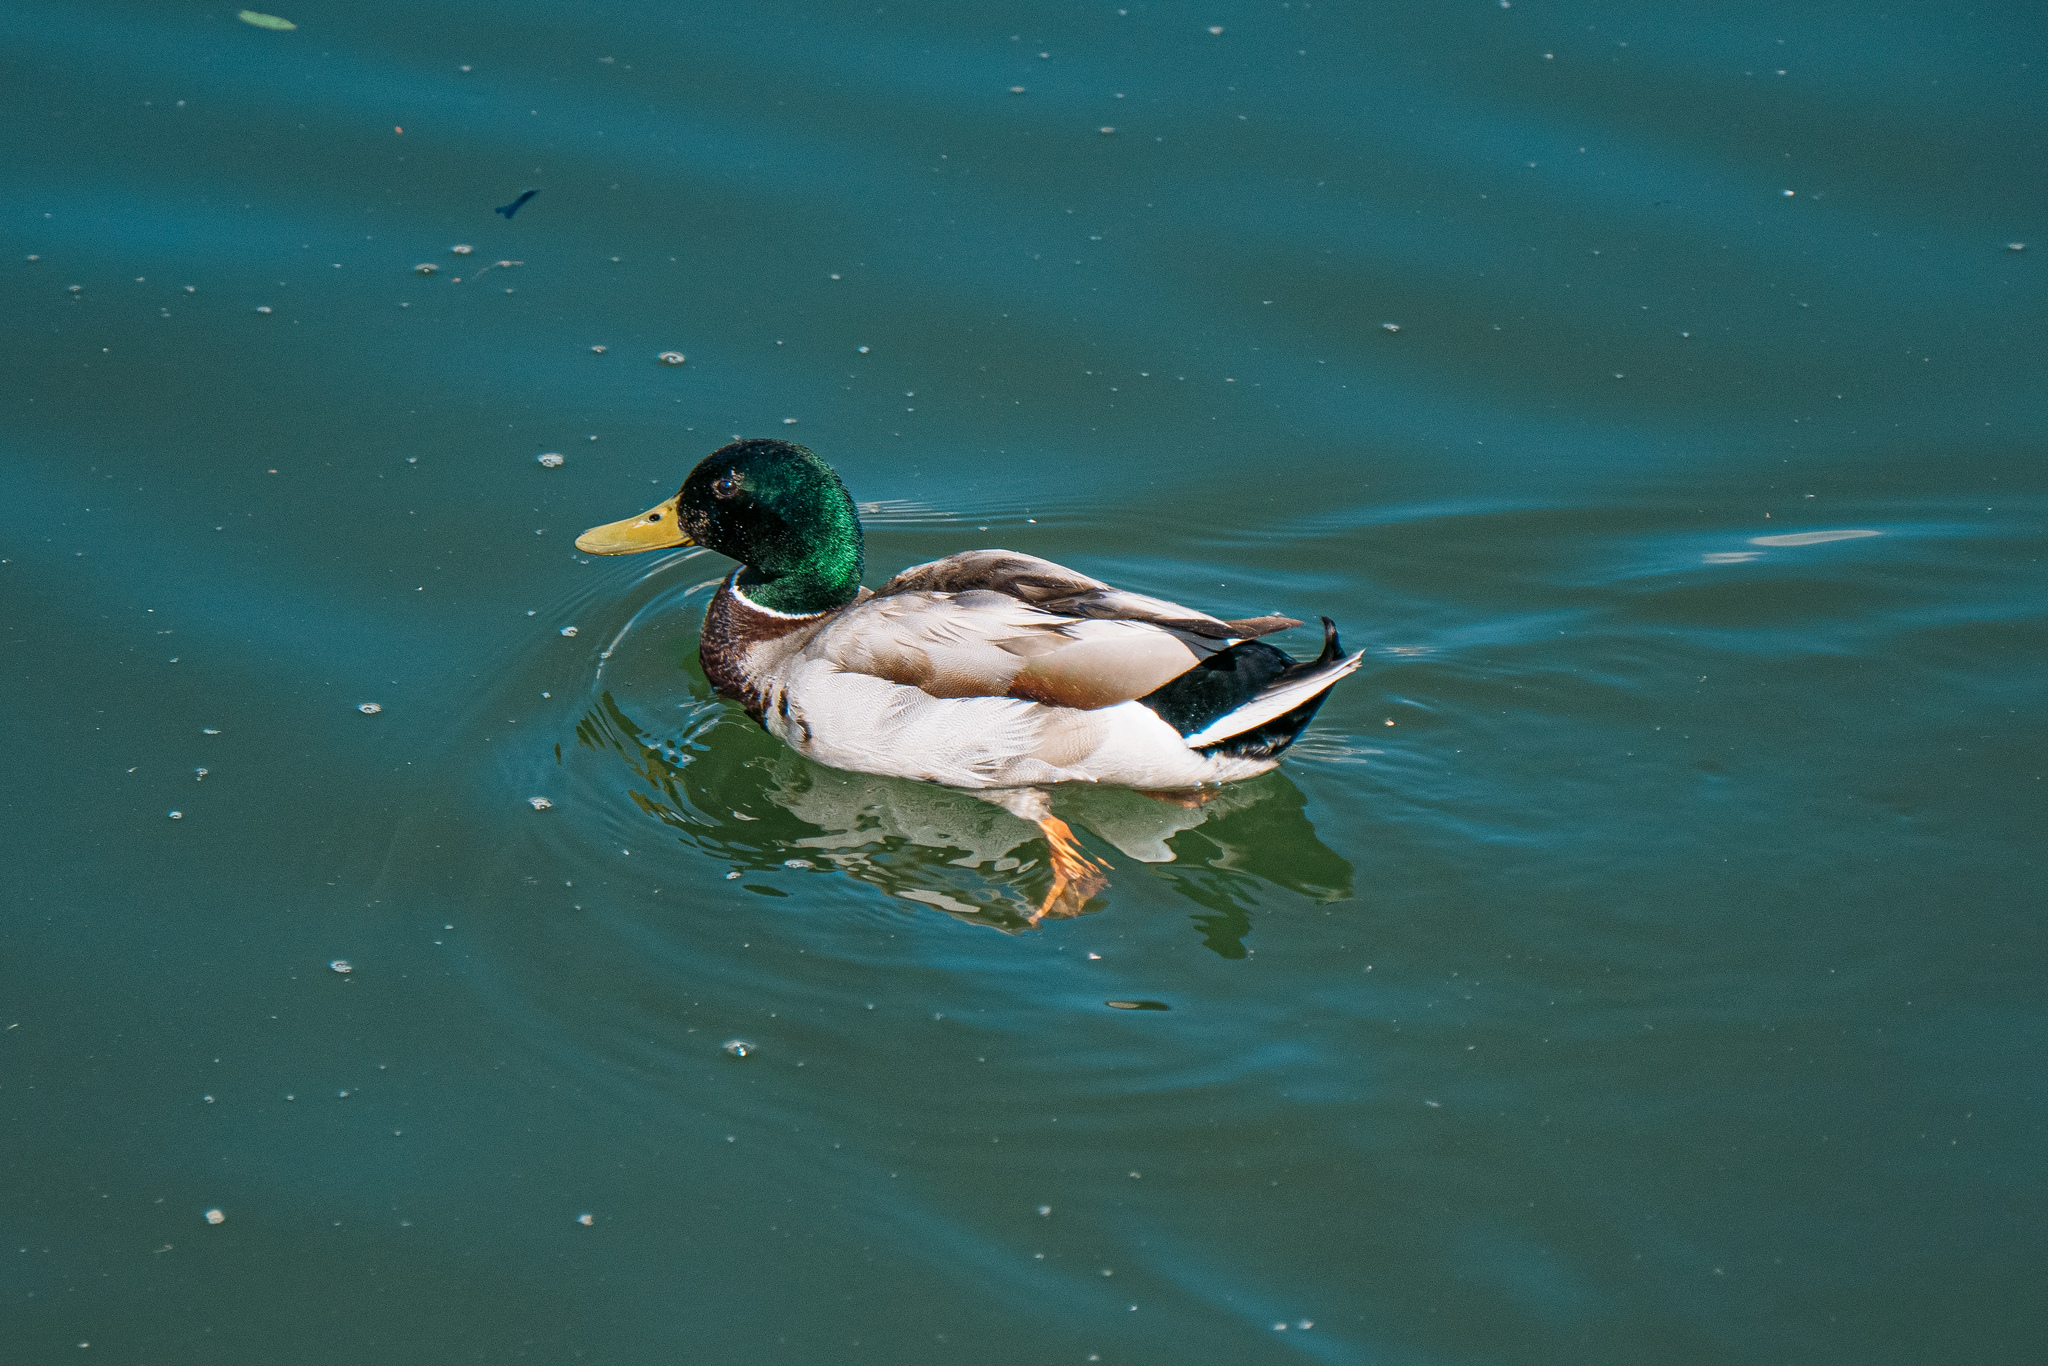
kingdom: Animalia
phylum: Chordata
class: Aves
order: Anseriformes
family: Anatidae
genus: Anas
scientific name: Anas platyrhynchos
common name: Mallard
